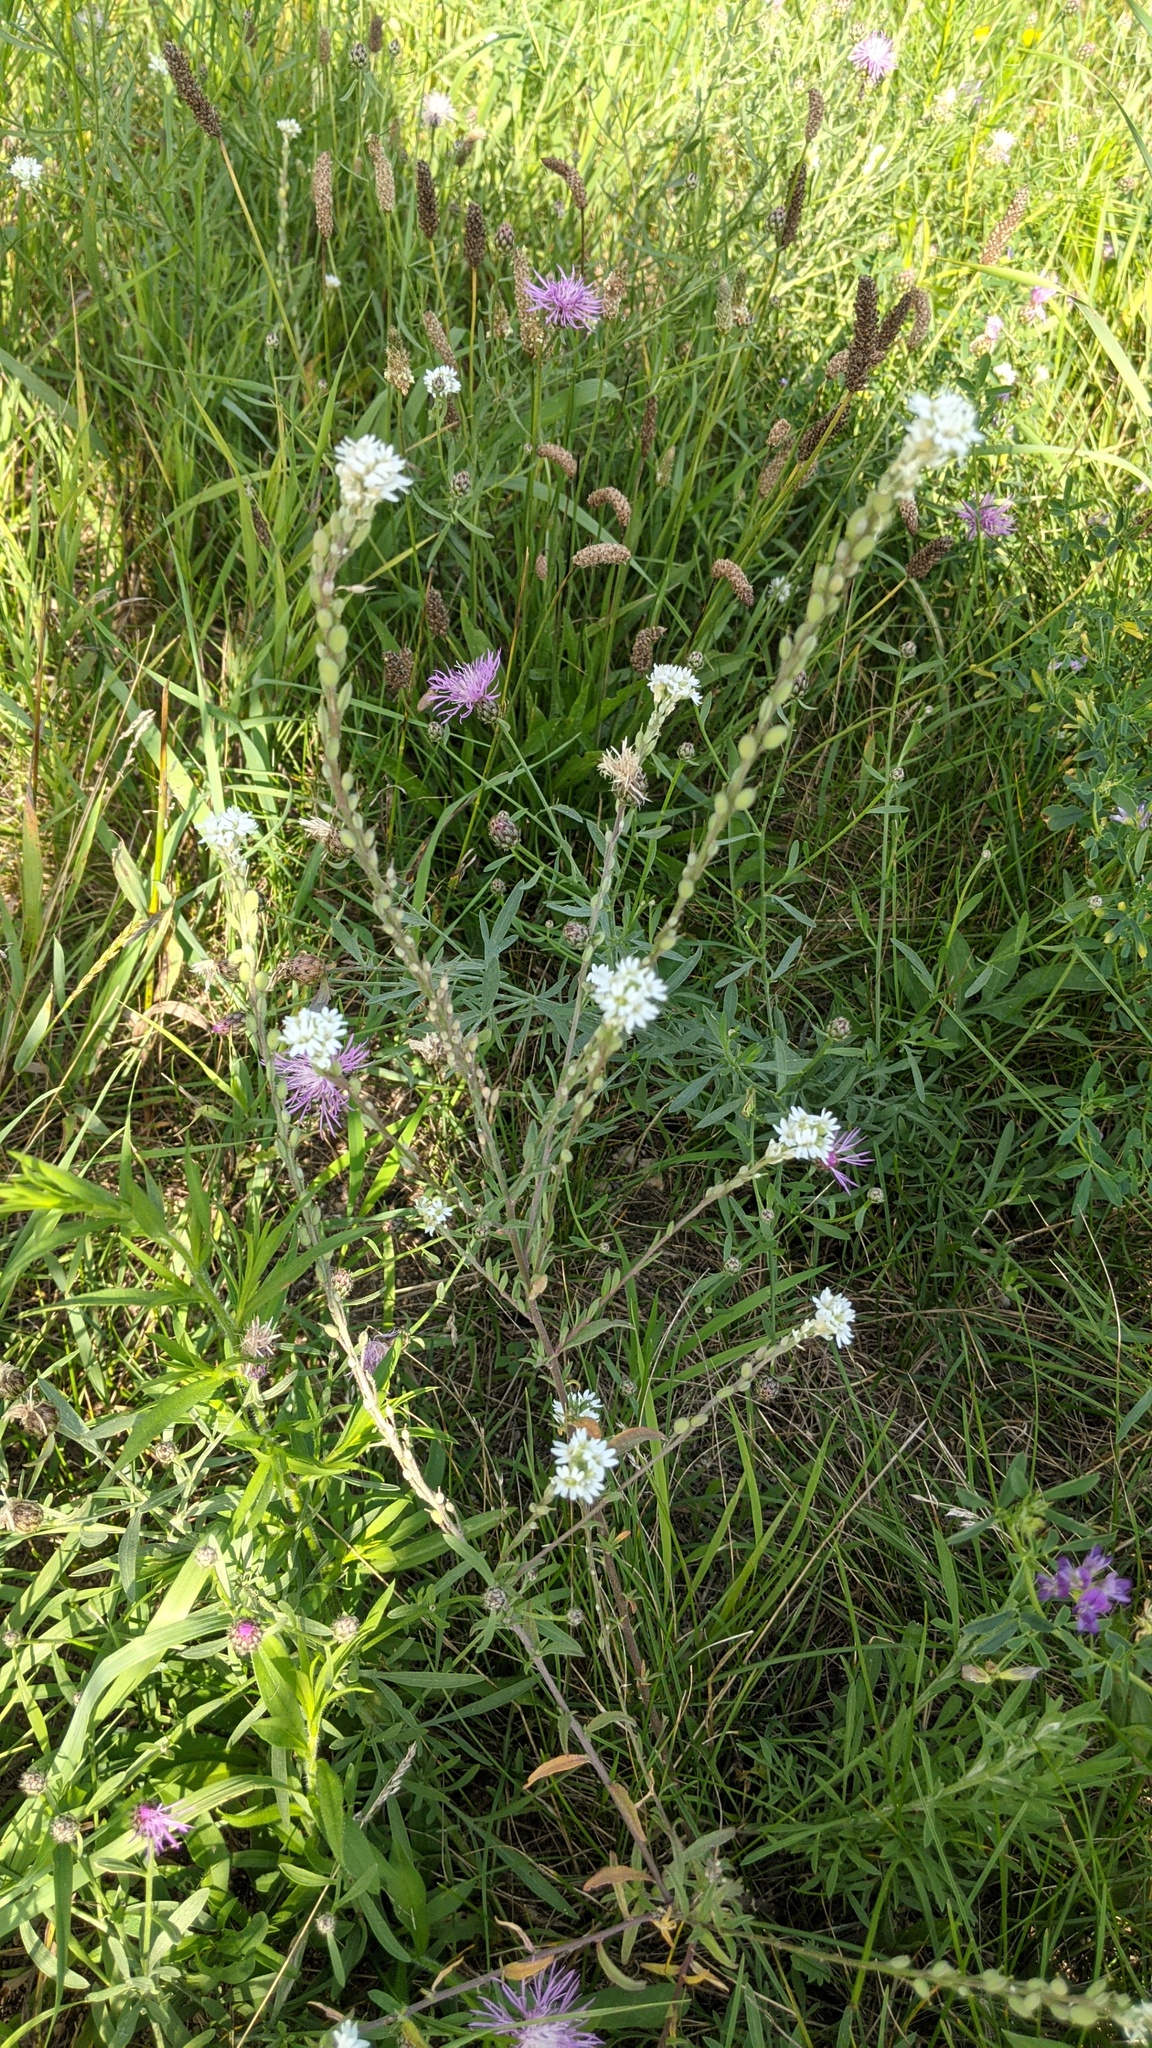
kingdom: Plantae
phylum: Tracheophyta
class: Magnoliopsida
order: Brassicales
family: Brassicaceae
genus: Berteroa
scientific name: Berteroa incana
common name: Hoary alison
